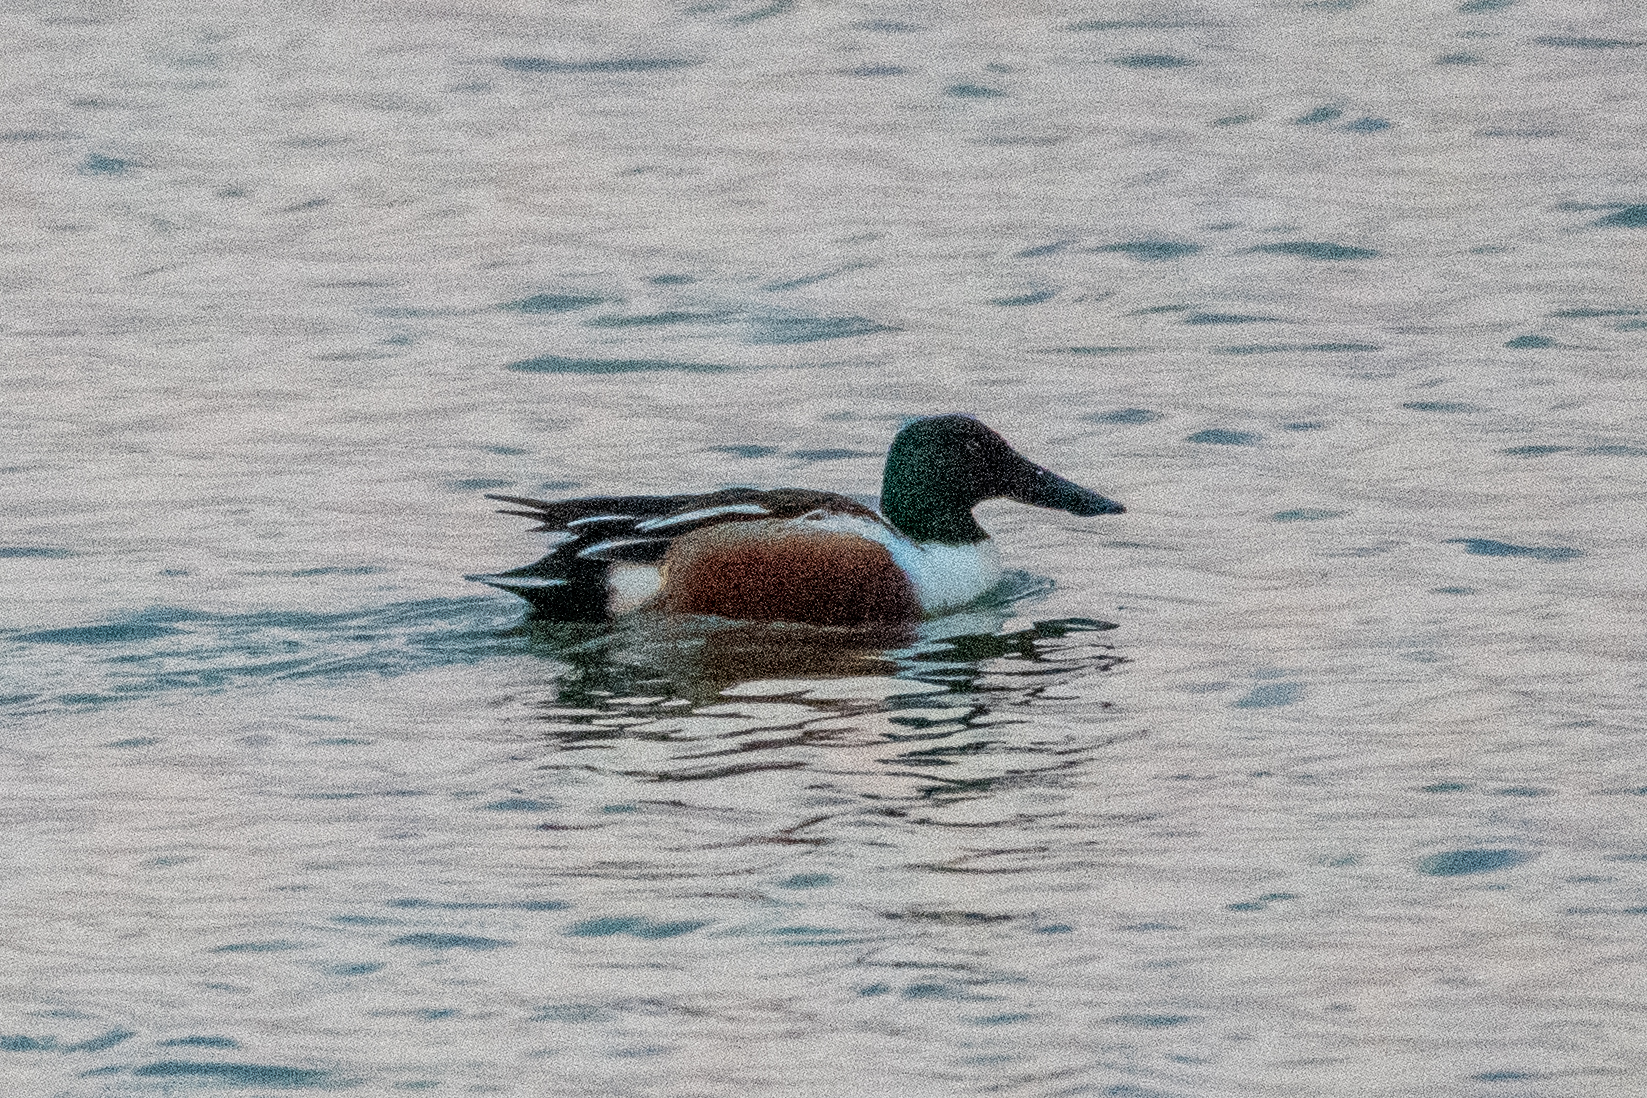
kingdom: Animalia
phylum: Chordata
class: Aves
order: Anseriformes
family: Anatidae
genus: Spatula
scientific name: Spatula clypeata
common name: Northern shoveler
